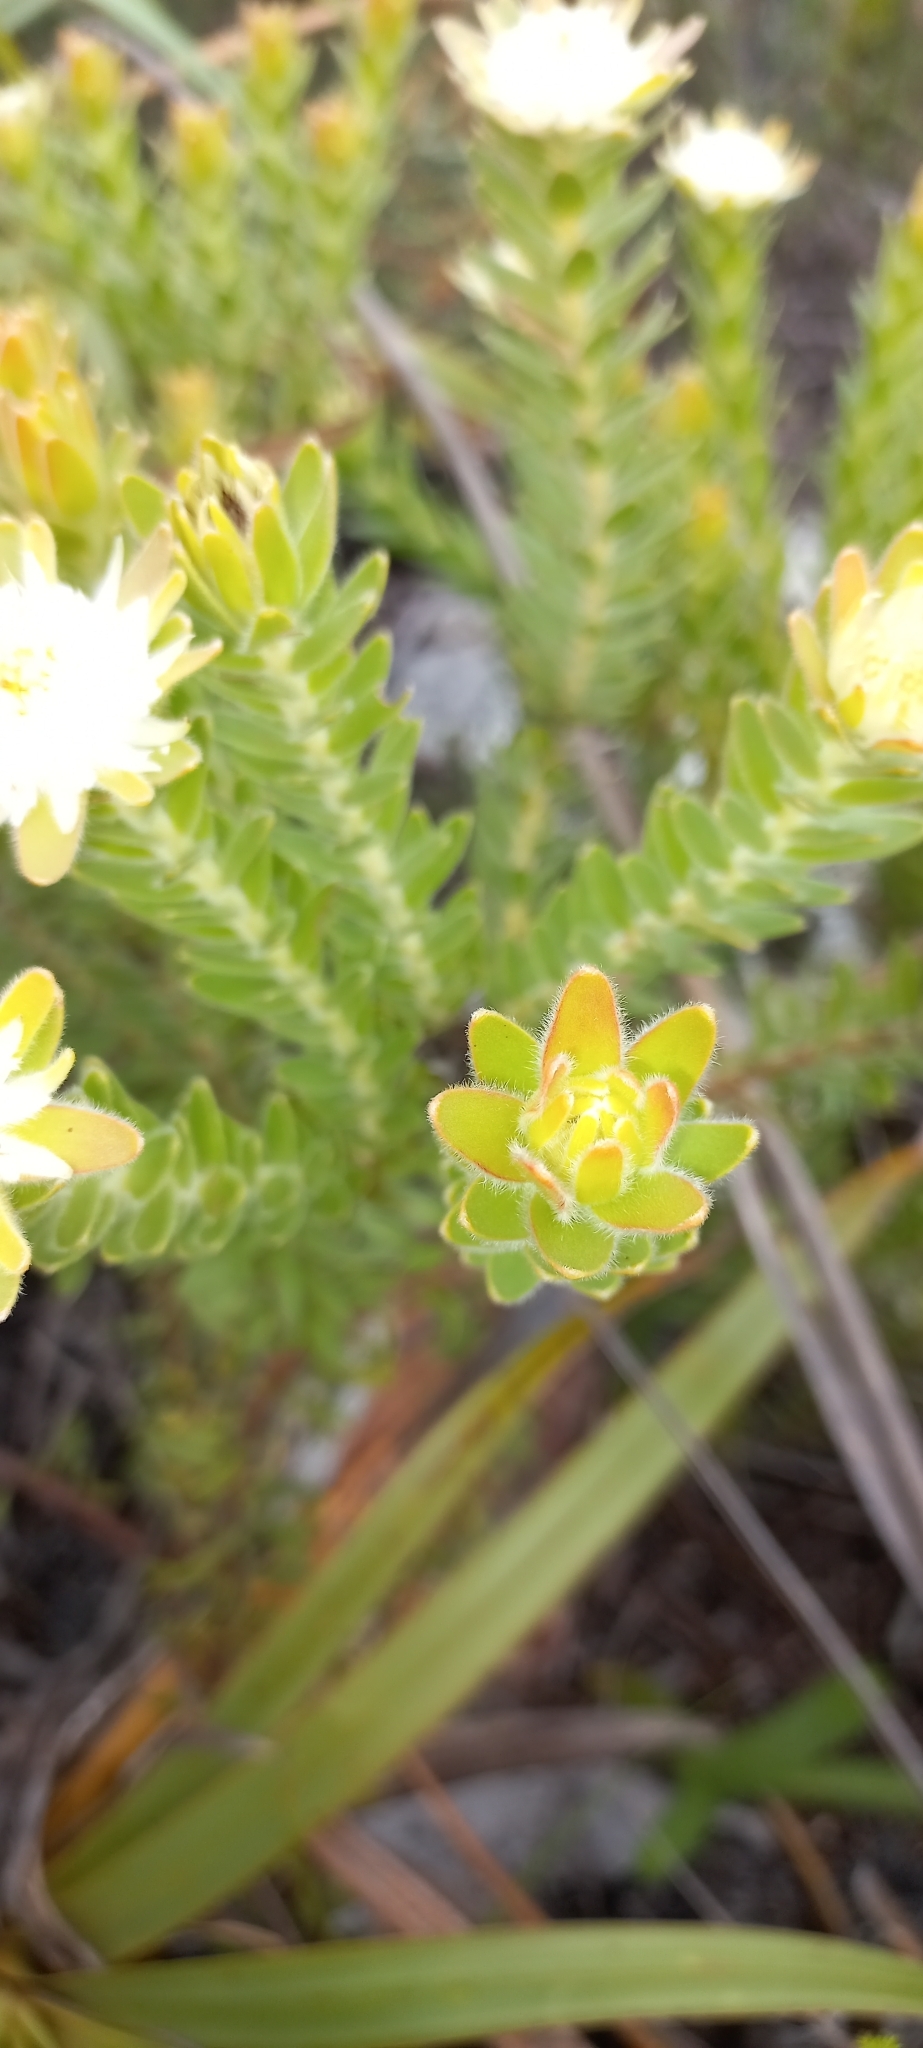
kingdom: Plantae
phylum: Tracheophyta
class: Magnoliopsida
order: Proteales
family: Proteaceae
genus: Diastella
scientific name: Diastella thymelaeoides
